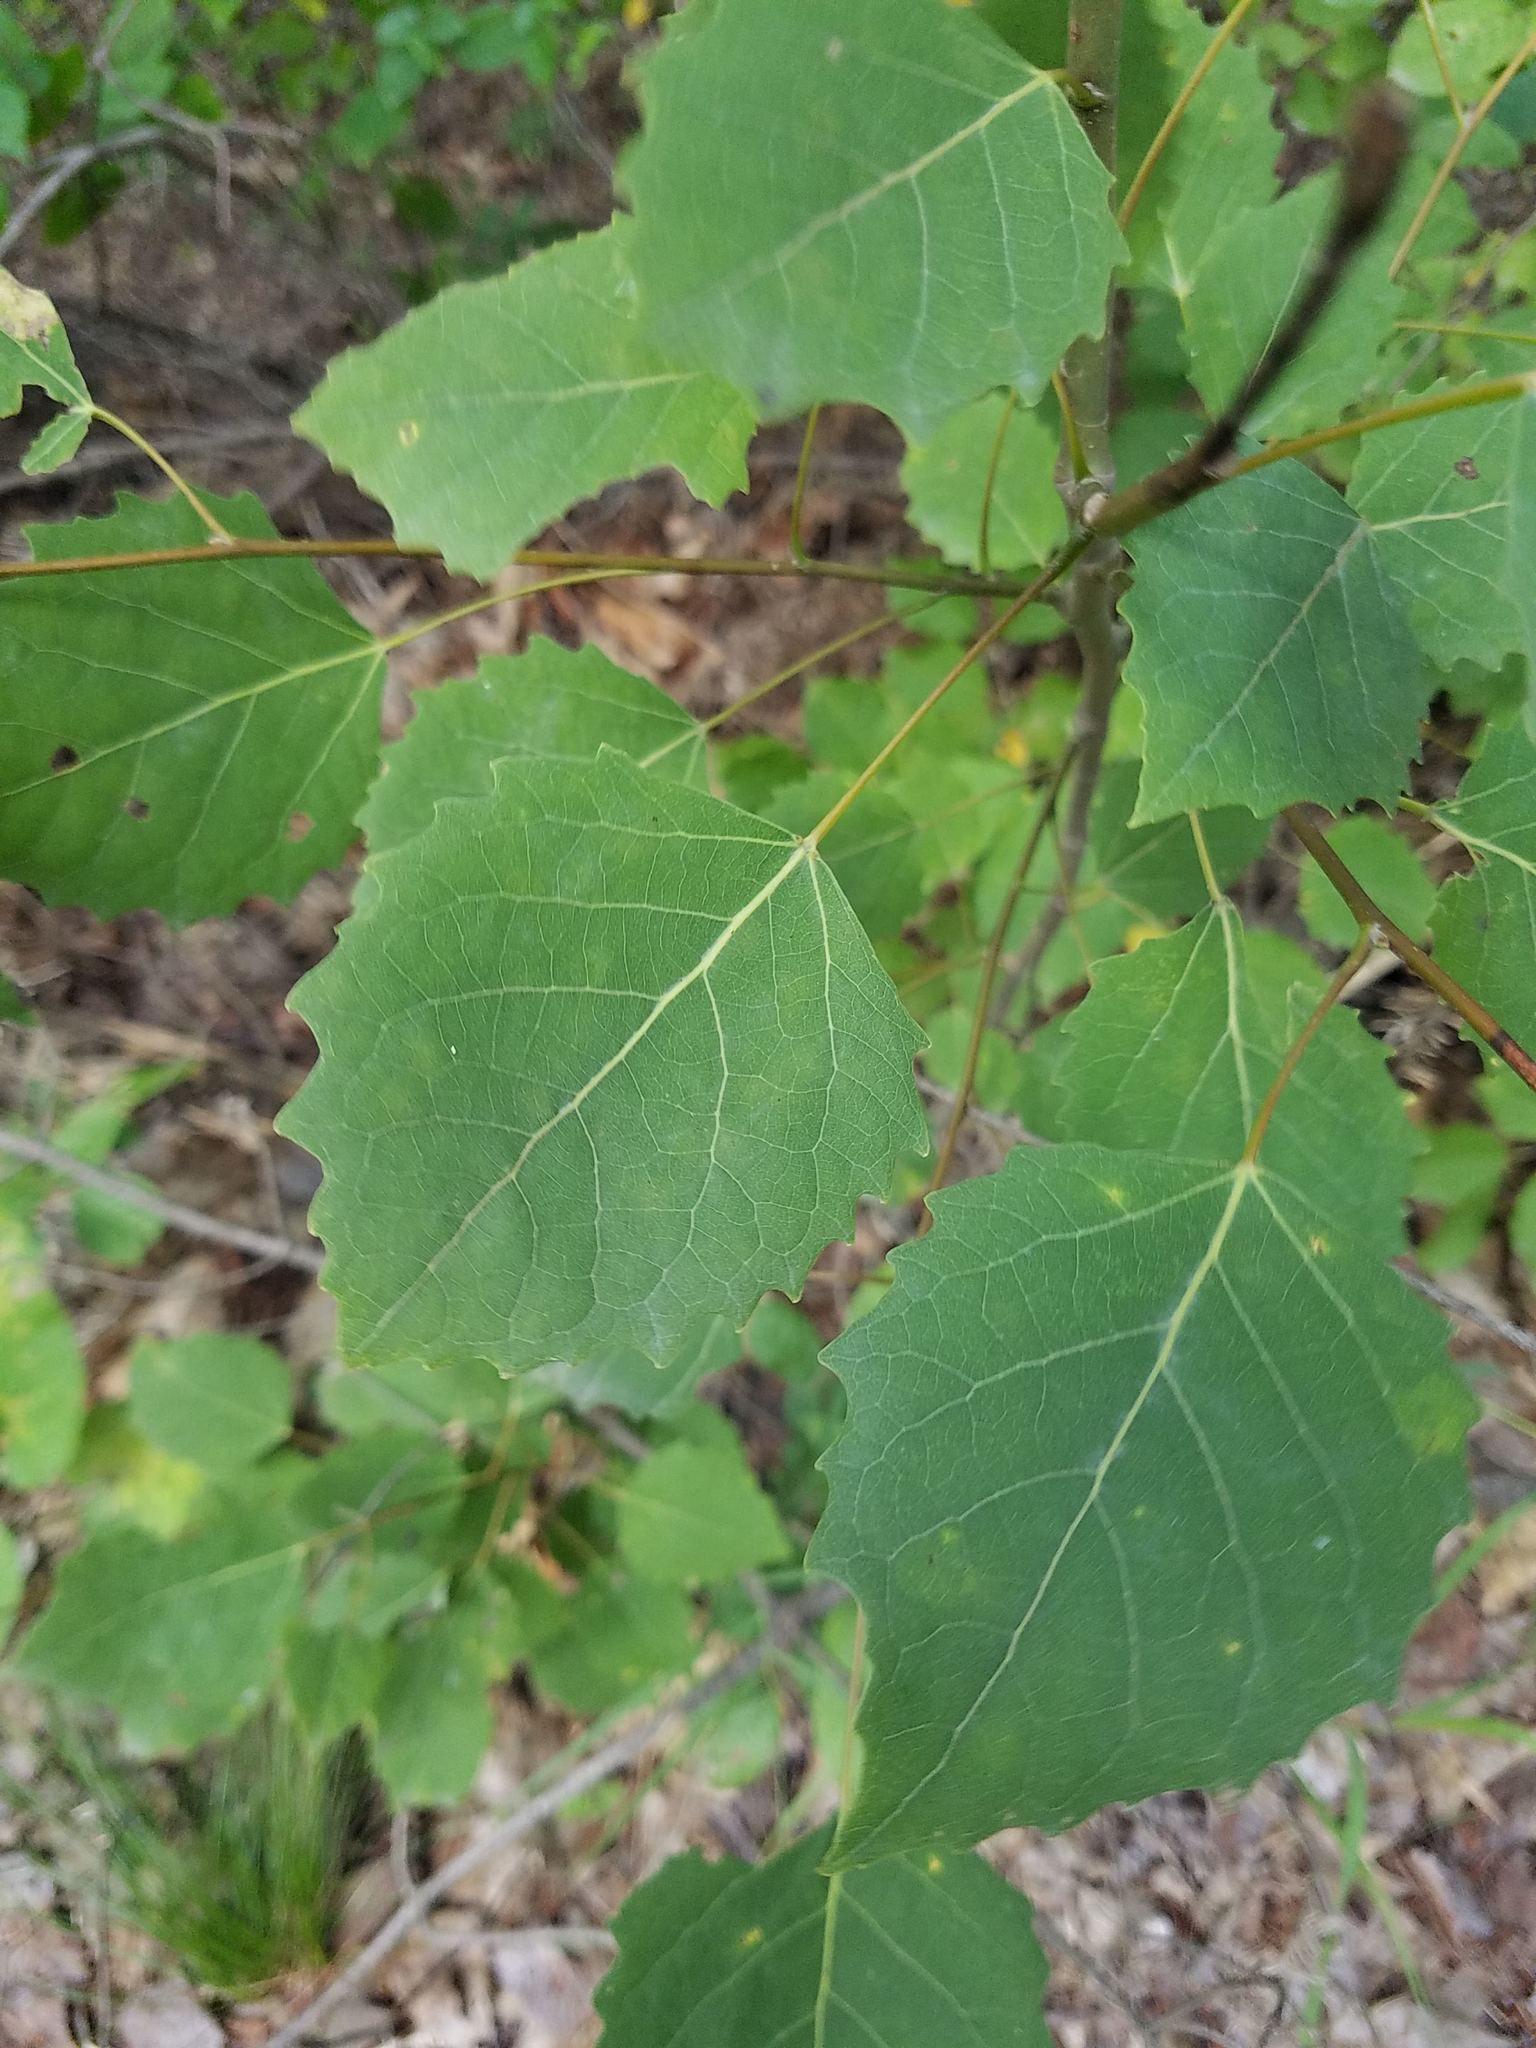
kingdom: Plantae
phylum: Tracheophyta
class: Magnoliopsida
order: Malpighiales
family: Salicaceae
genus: Populus
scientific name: Populus grandidentata
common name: Bigtooth aspen
